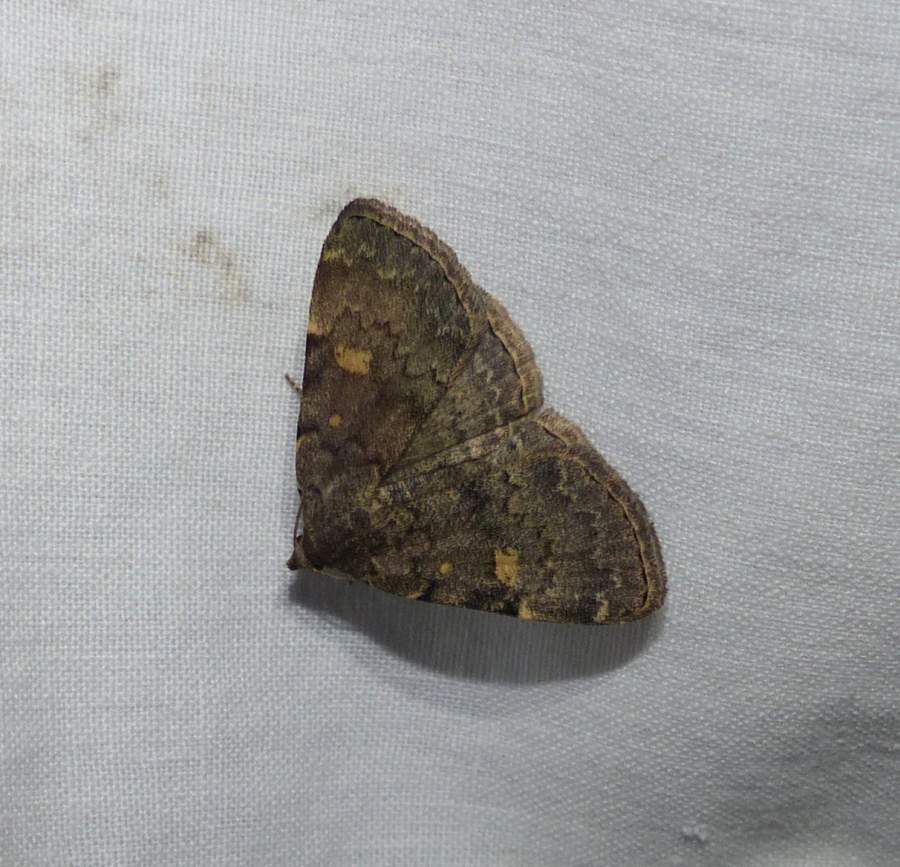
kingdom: Animalia
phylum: Arthropoda
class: Insecta
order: Lepidoptera
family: Erebidae
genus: Idia
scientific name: Idia aemula
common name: Common idia moth
